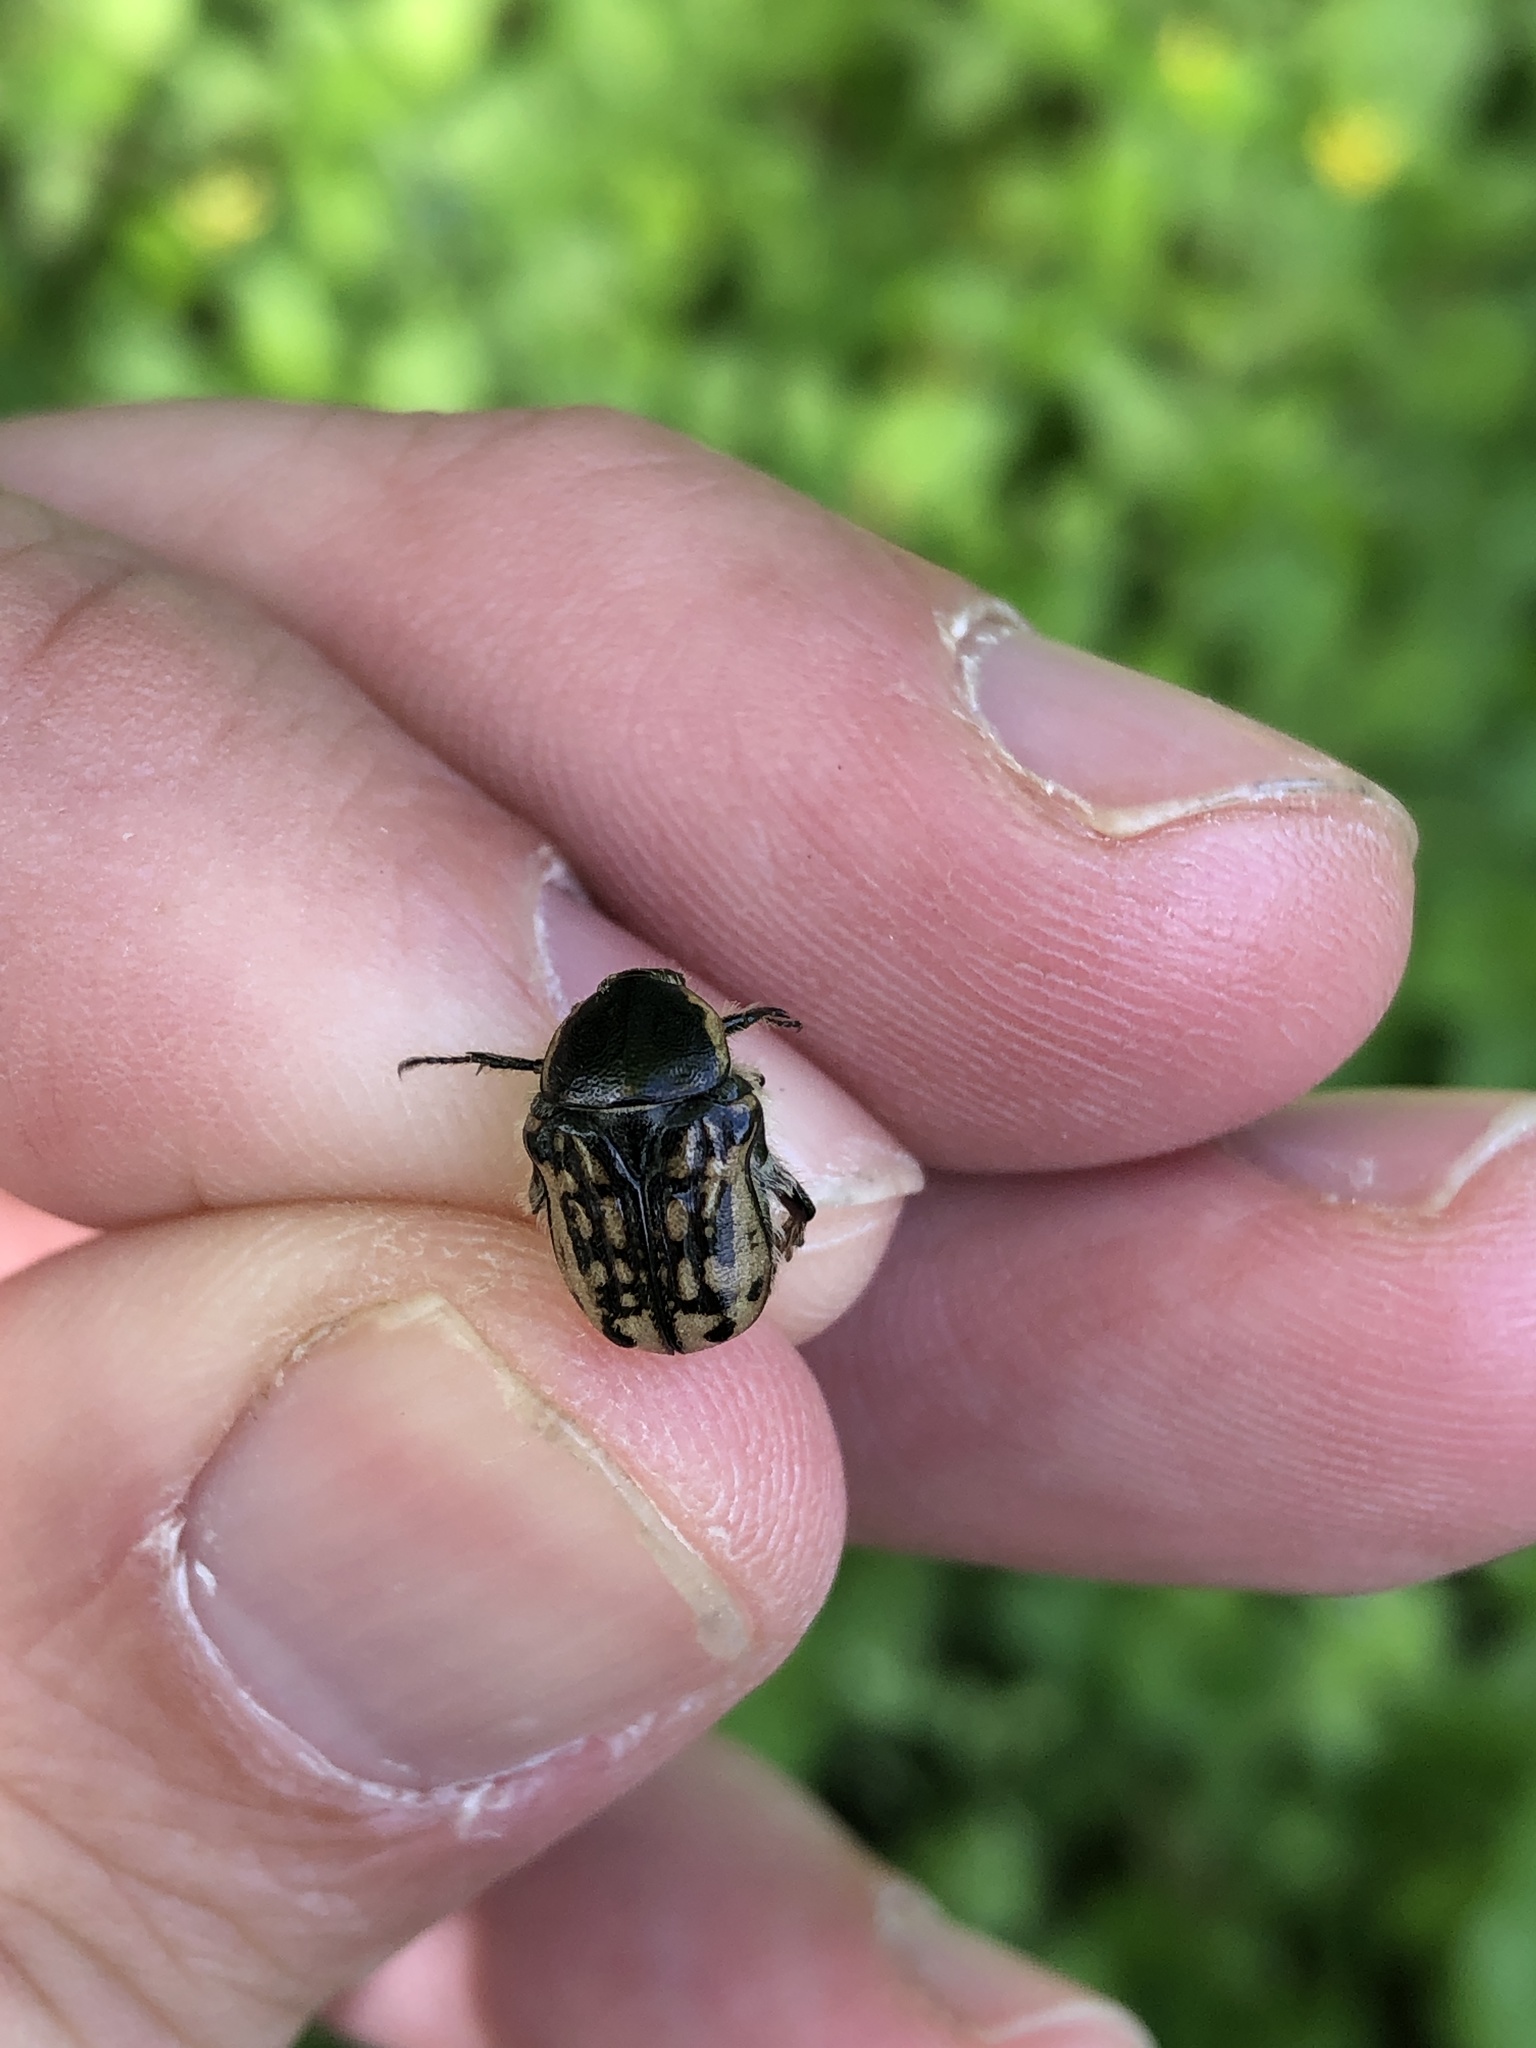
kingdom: Animalia
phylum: Arthropoda
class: Insecta
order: Coleoptera
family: Scarabaeidae
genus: Euphoria
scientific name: Euphoria kernii
